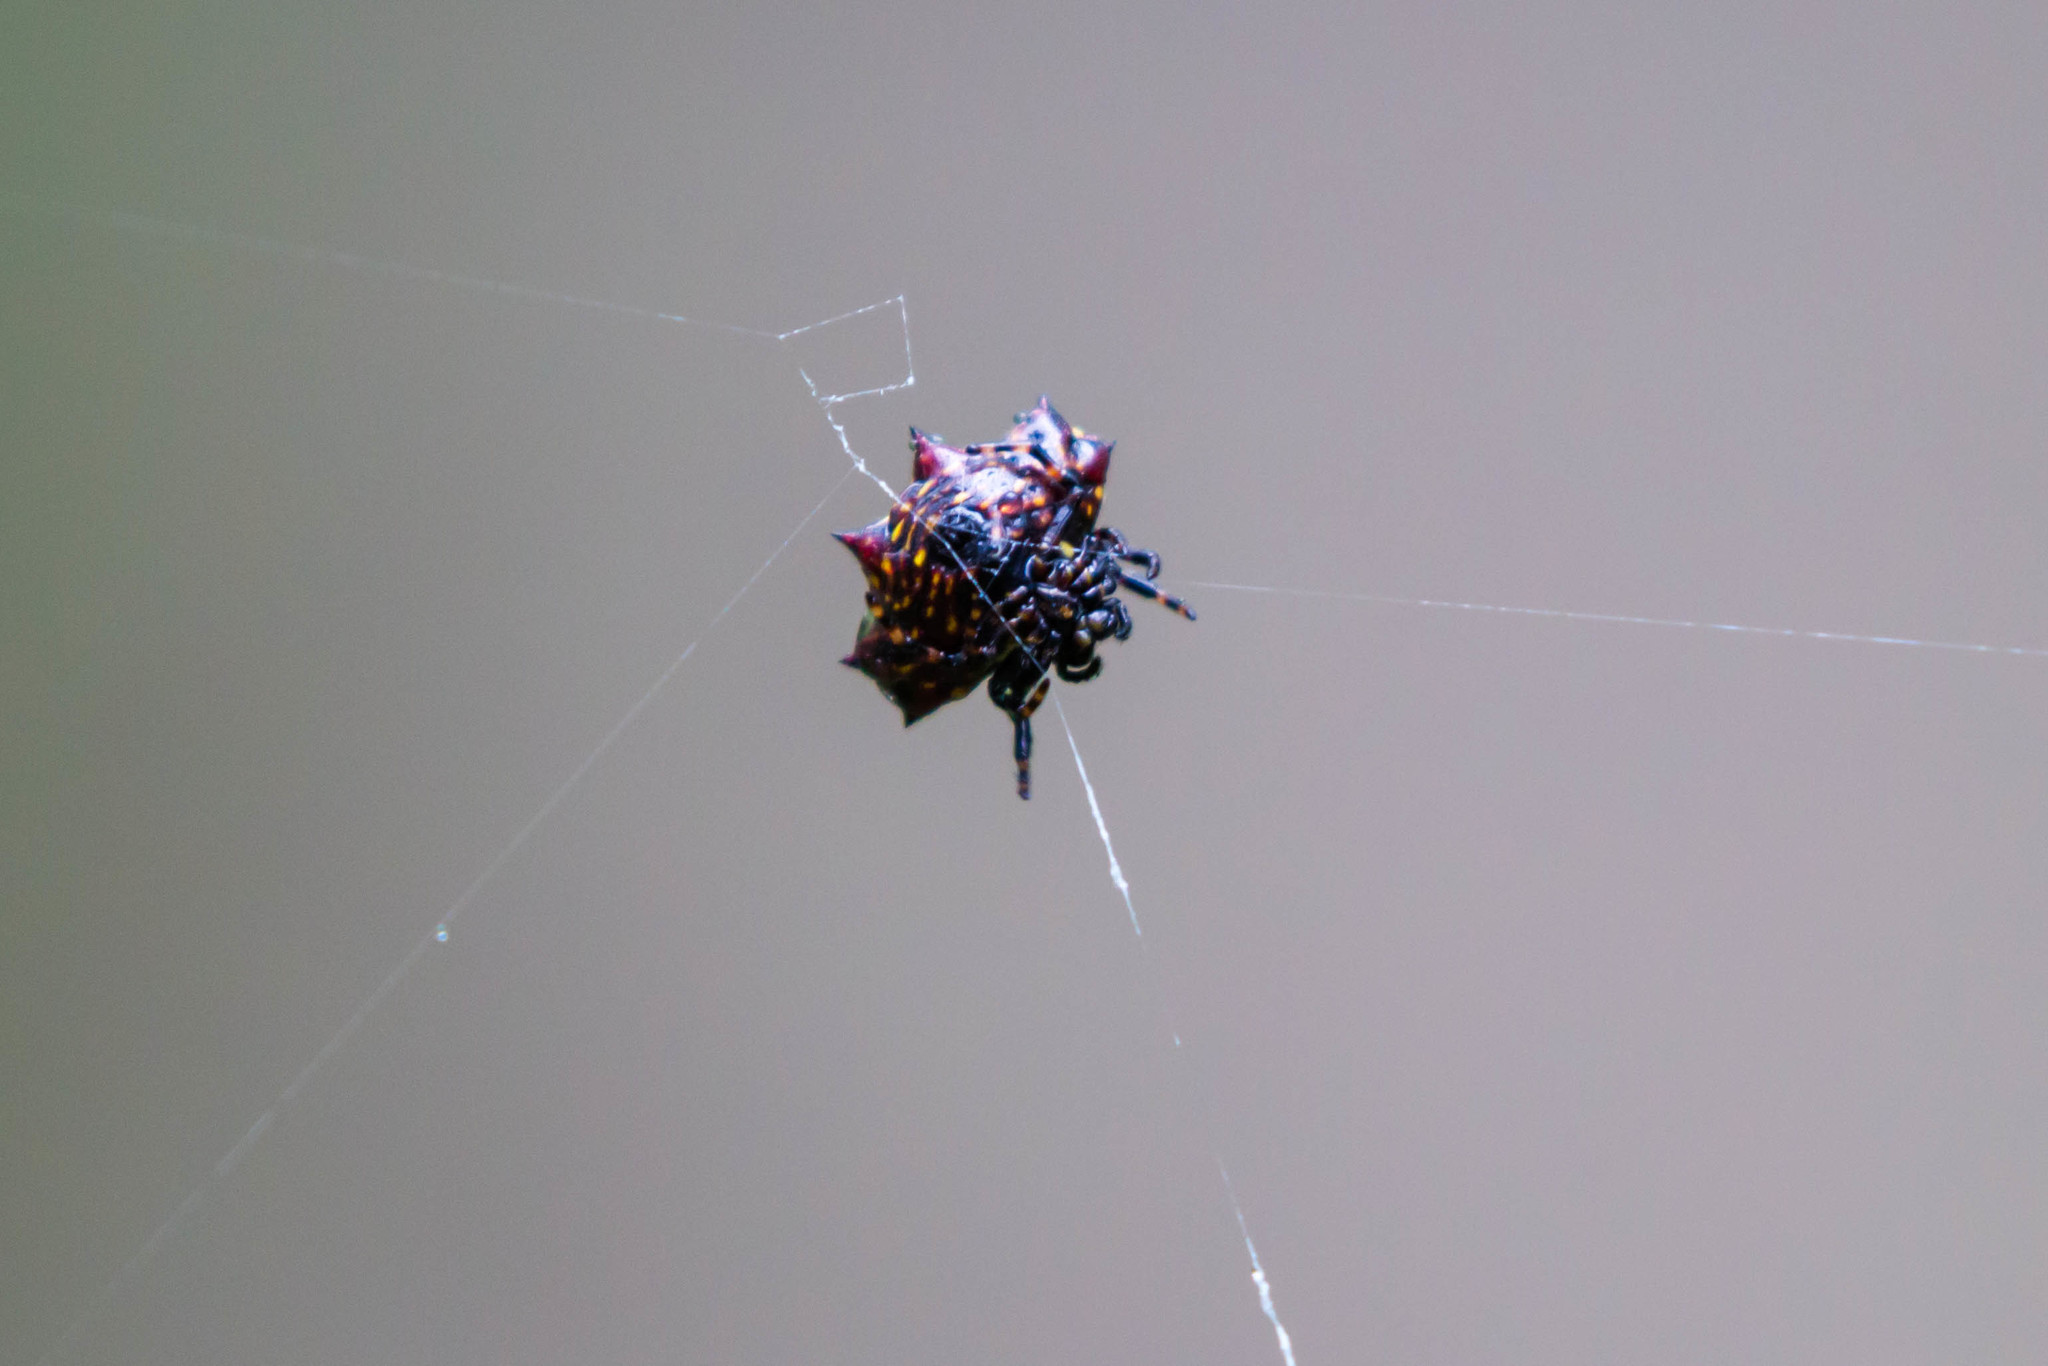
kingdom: Animalia
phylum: Arthropoda
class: Arachnida
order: Araneae
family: Araneidae
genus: Gasteracantha
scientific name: Gasteracantha cancriformis
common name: Orb weavers
